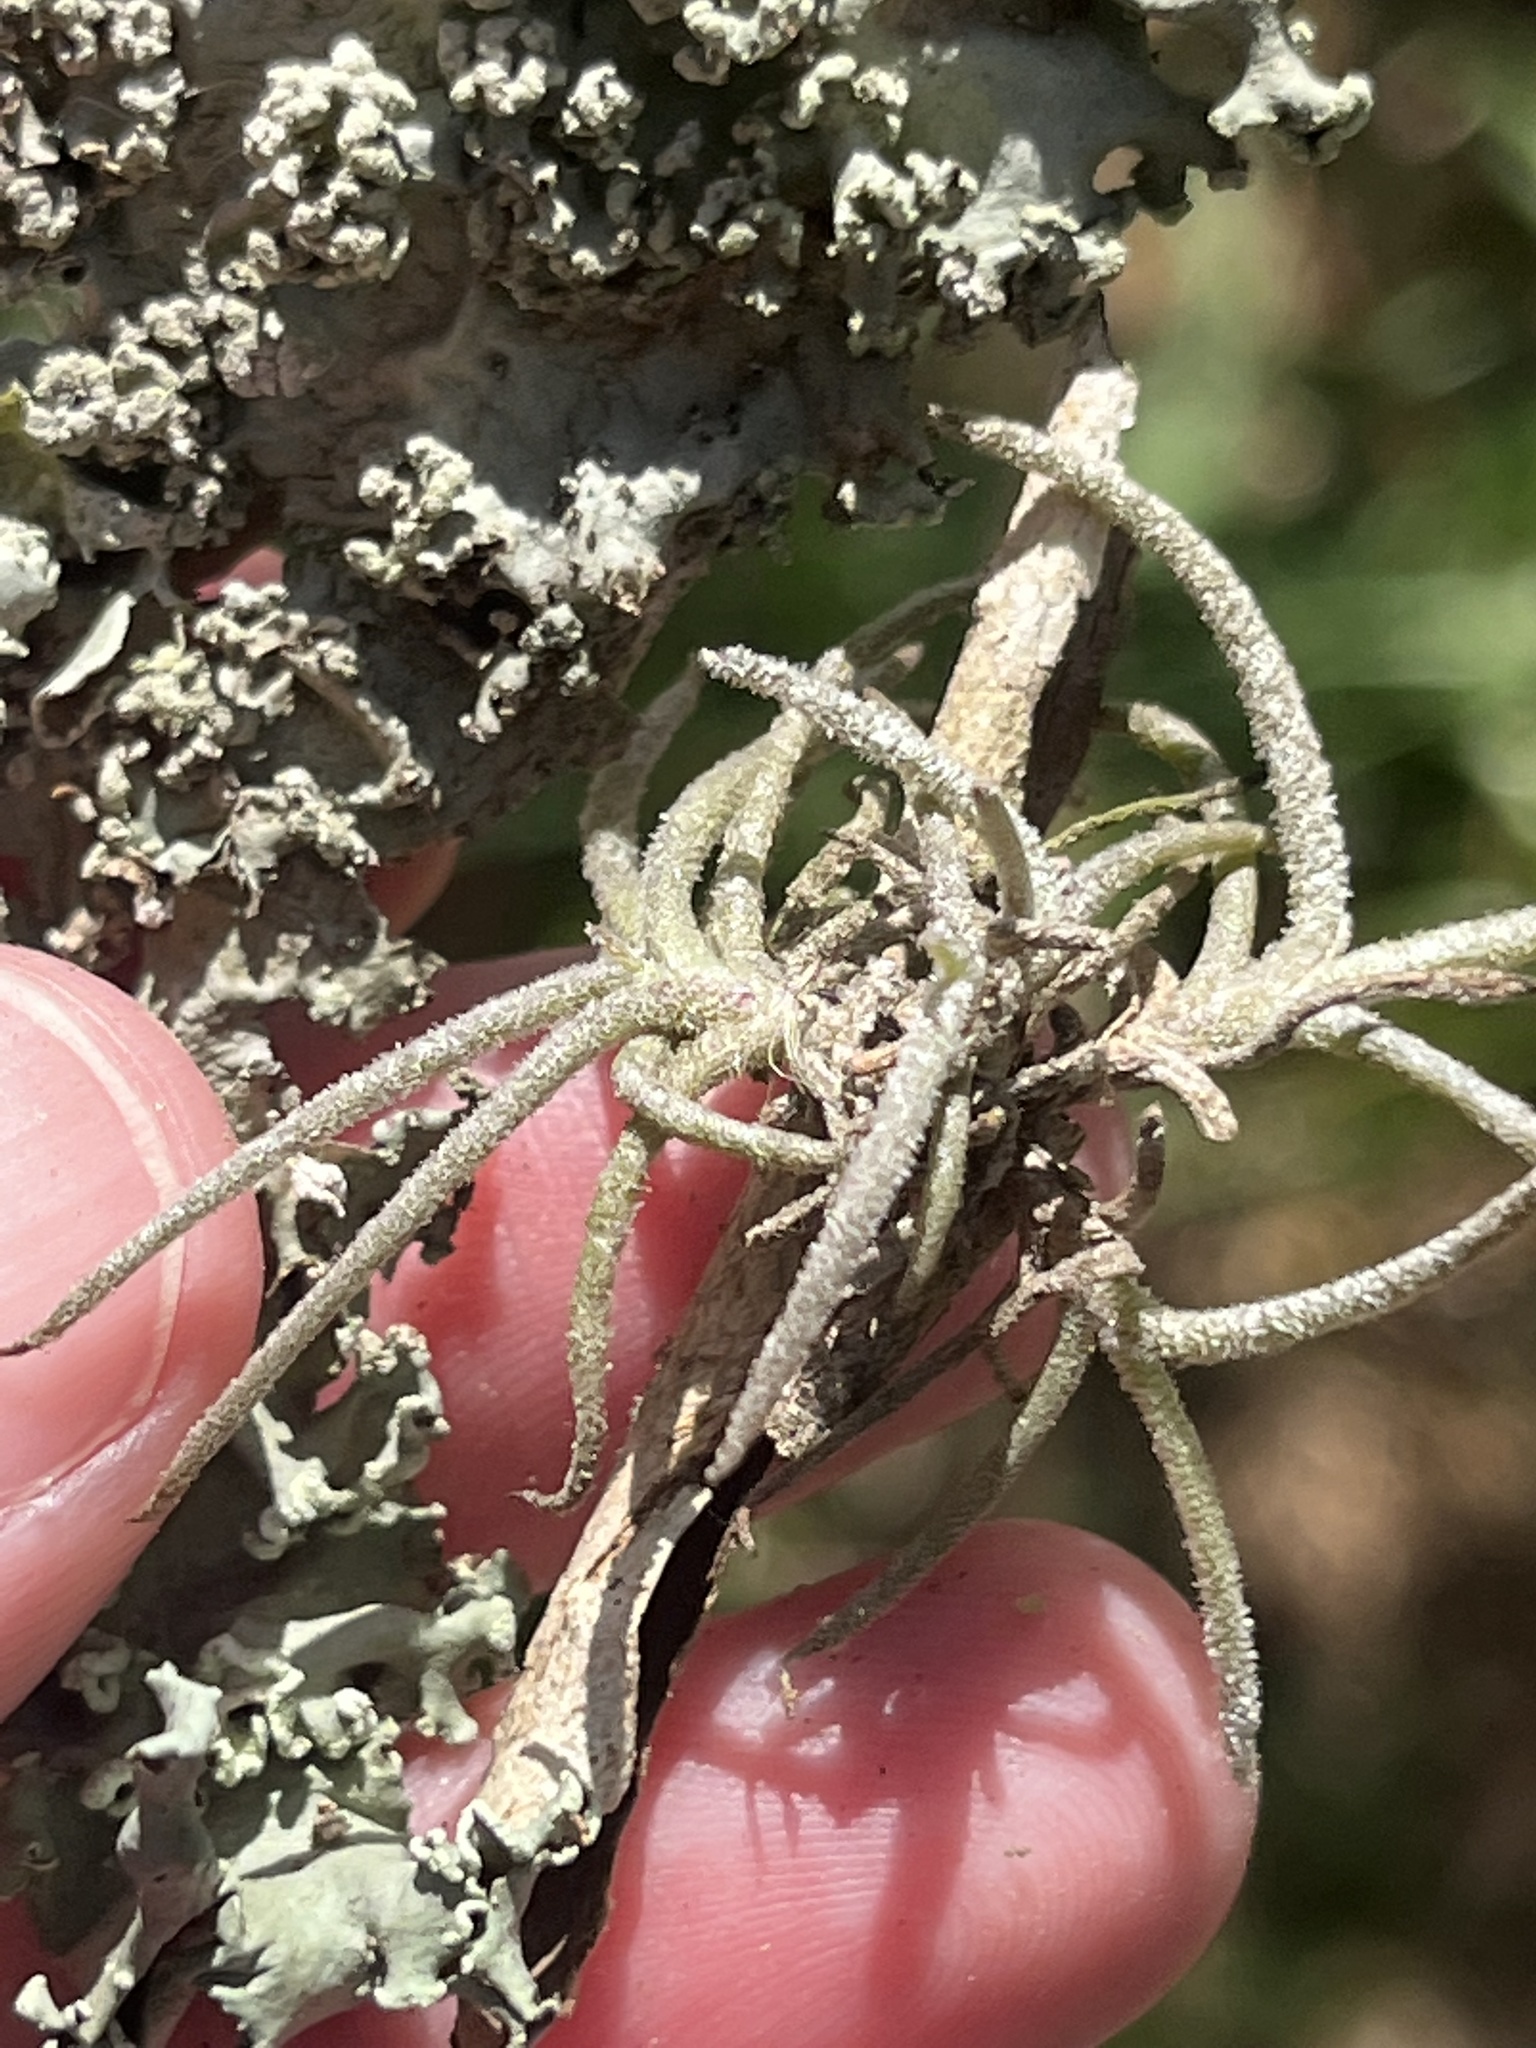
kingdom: Plantae
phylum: Tracheophyta
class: Liliopsida
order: Poales
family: Bromeliaceae
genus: Tillandsia
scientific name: Tillandsia recurvata
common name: Small ballmoss
